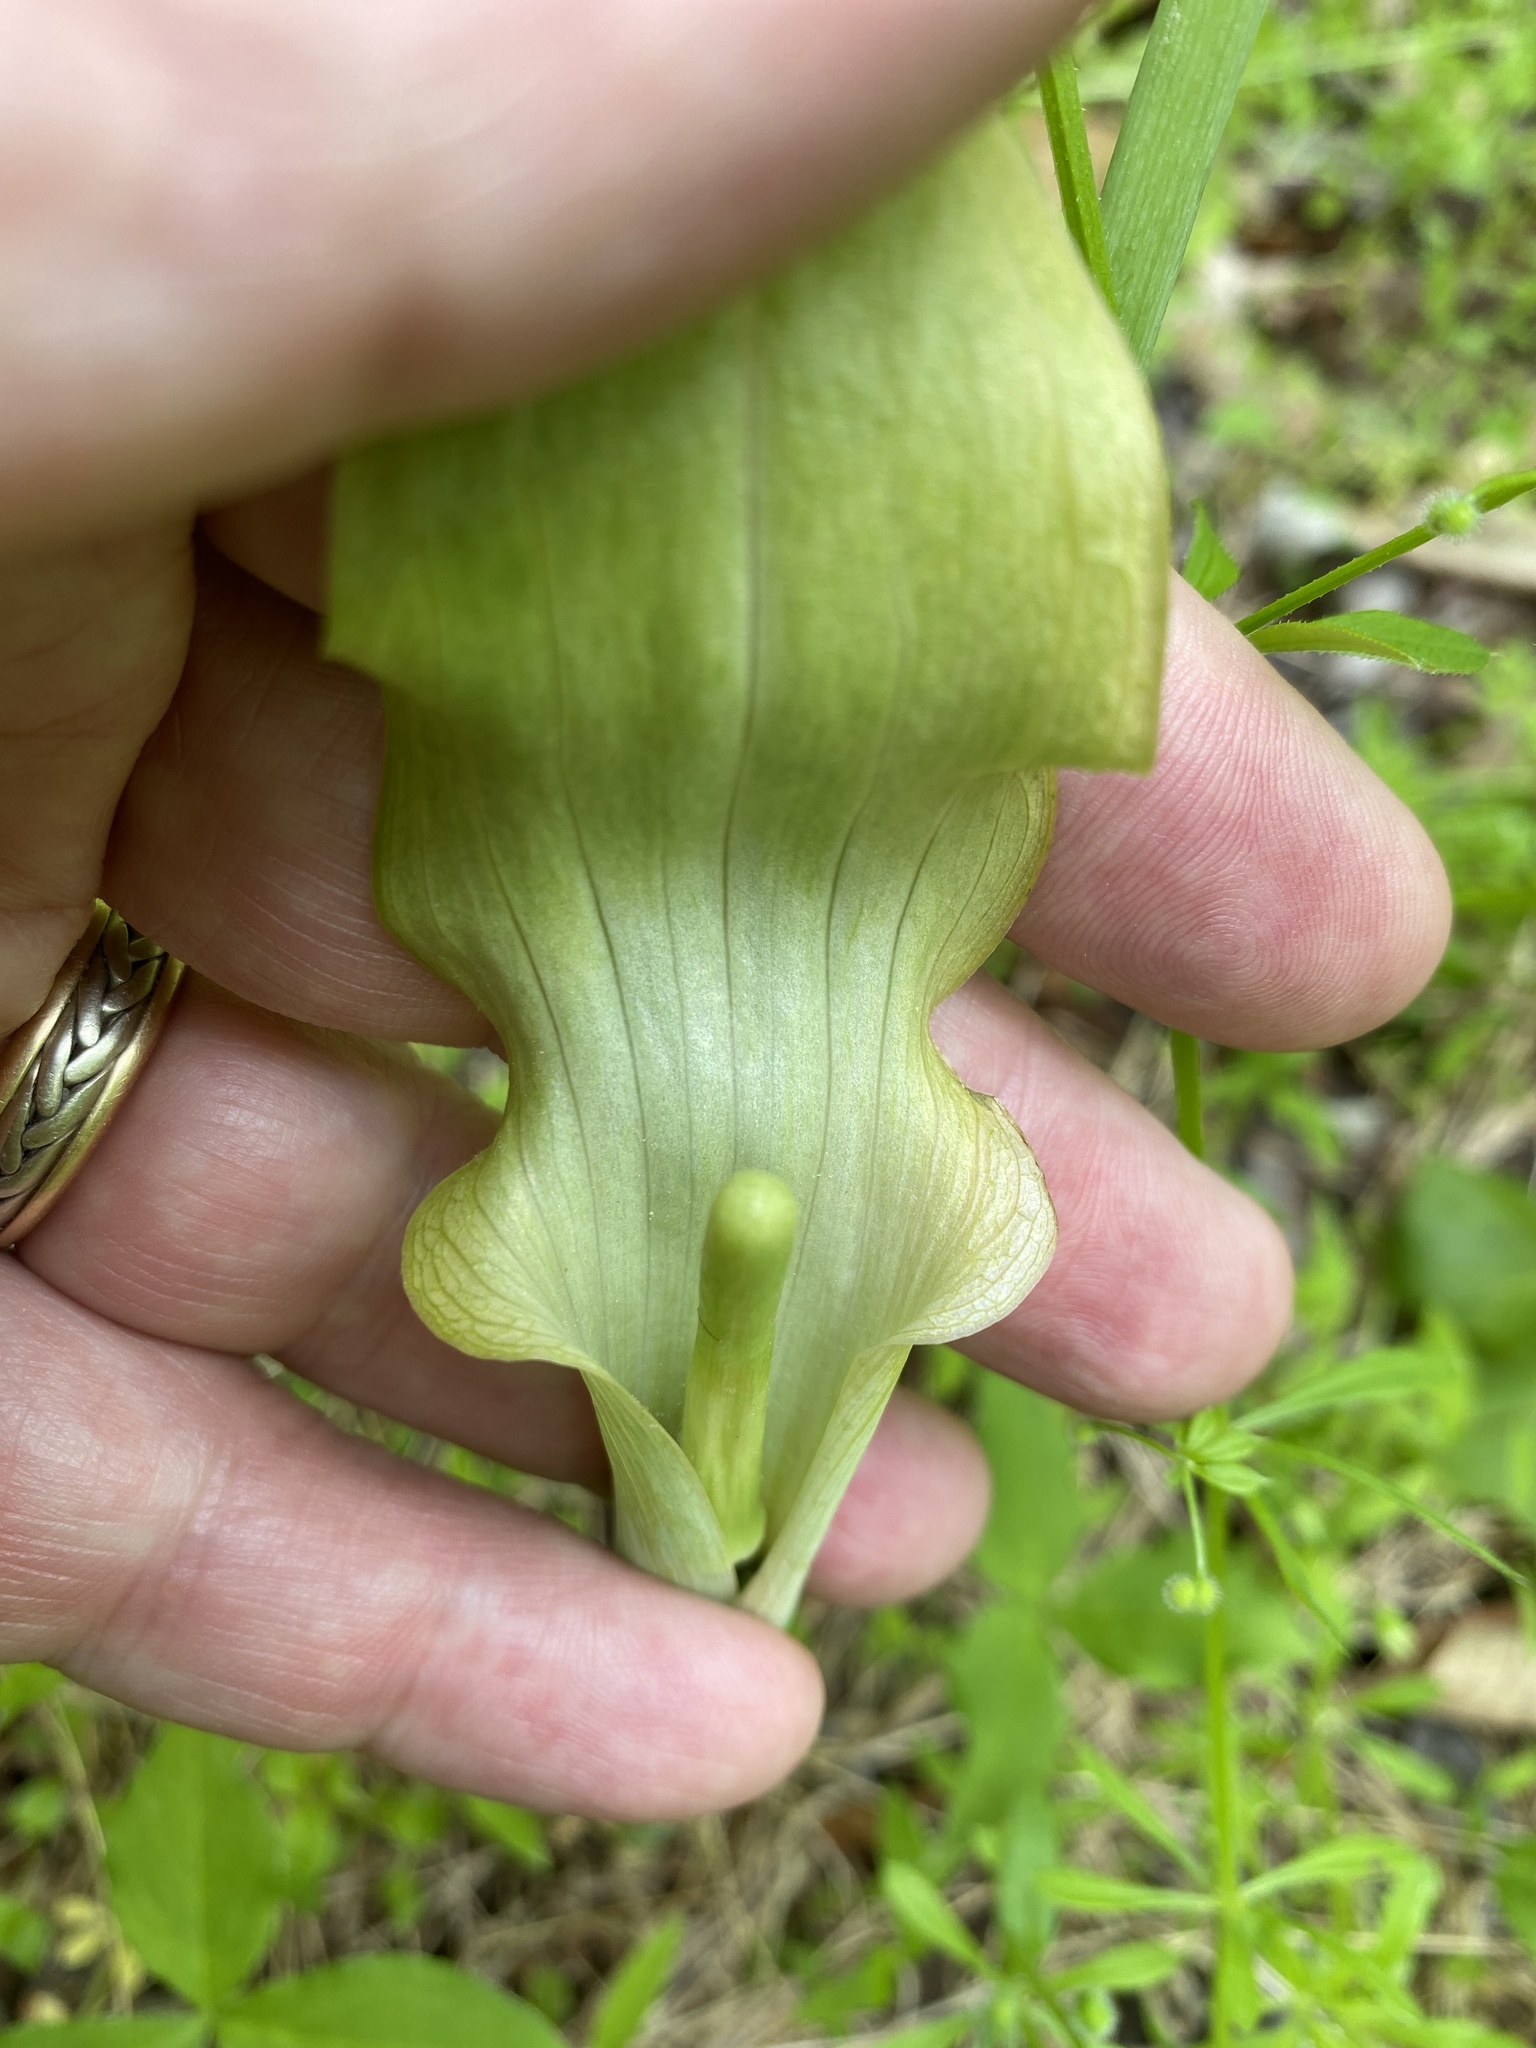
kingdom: Plantae
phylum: Tracheophyta
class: Liliopsida
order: Alismatales
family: Araceae
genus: Arisaema
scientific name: Arisaema triphyllum
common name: Jack-in-the-pulpit
